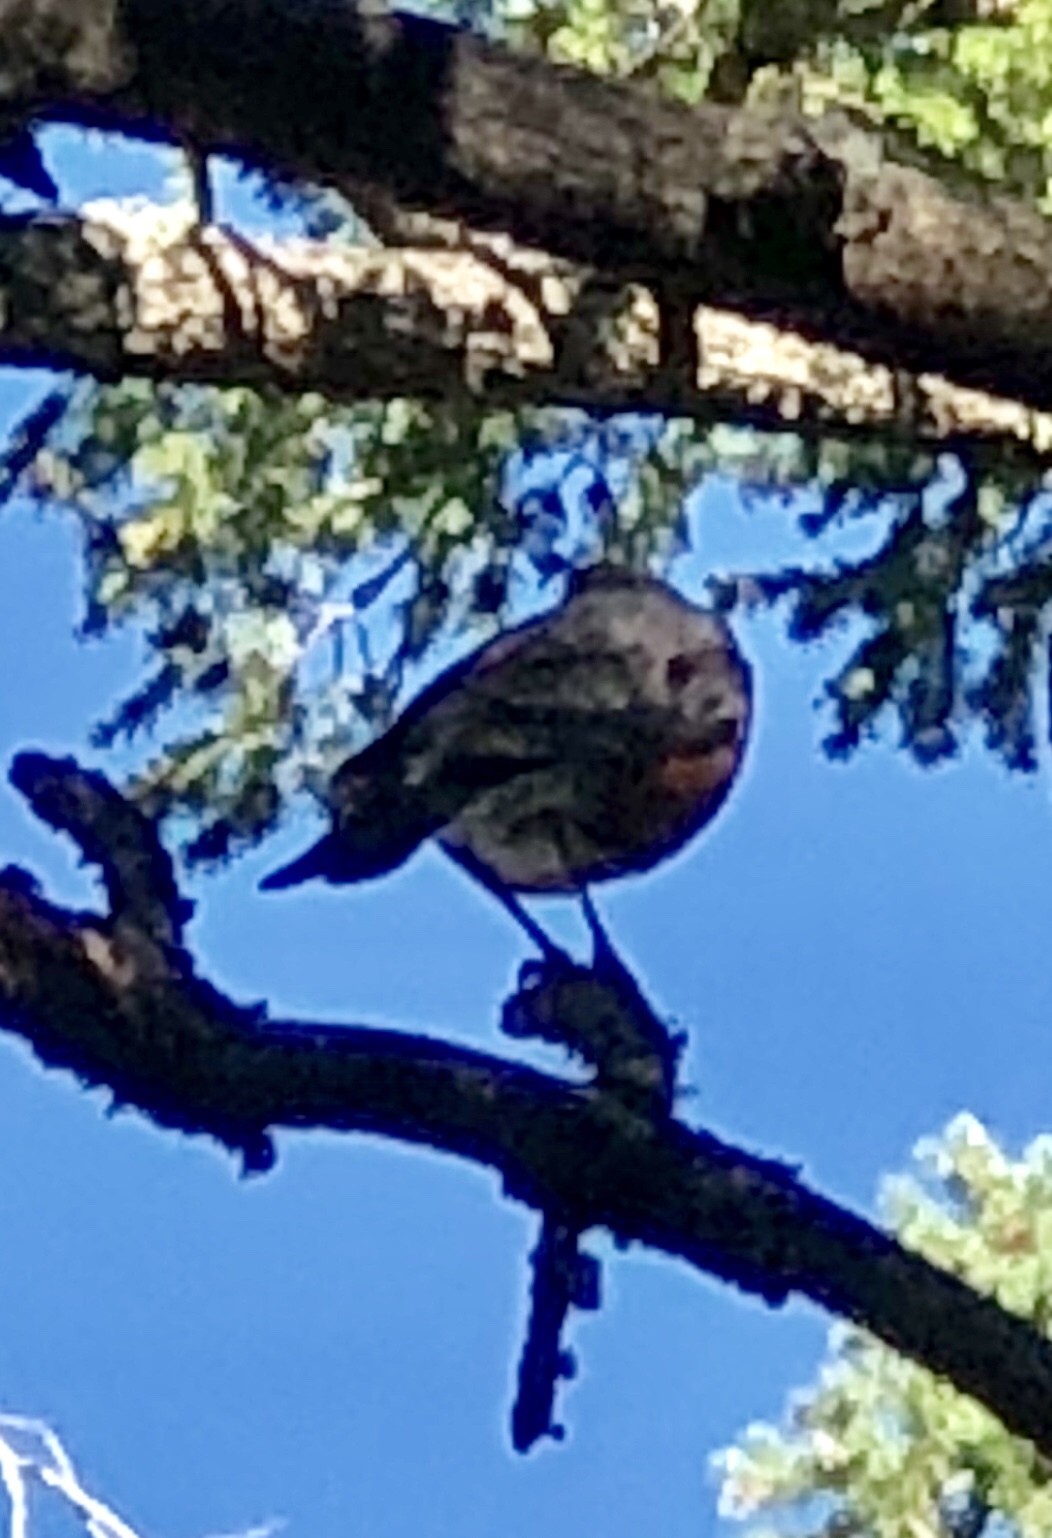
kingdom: Animalia
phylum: Chordata
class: Aves
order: Passeriformes
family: Turdidae
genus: Turdus
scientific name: Turdus migratorius
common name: American robin
